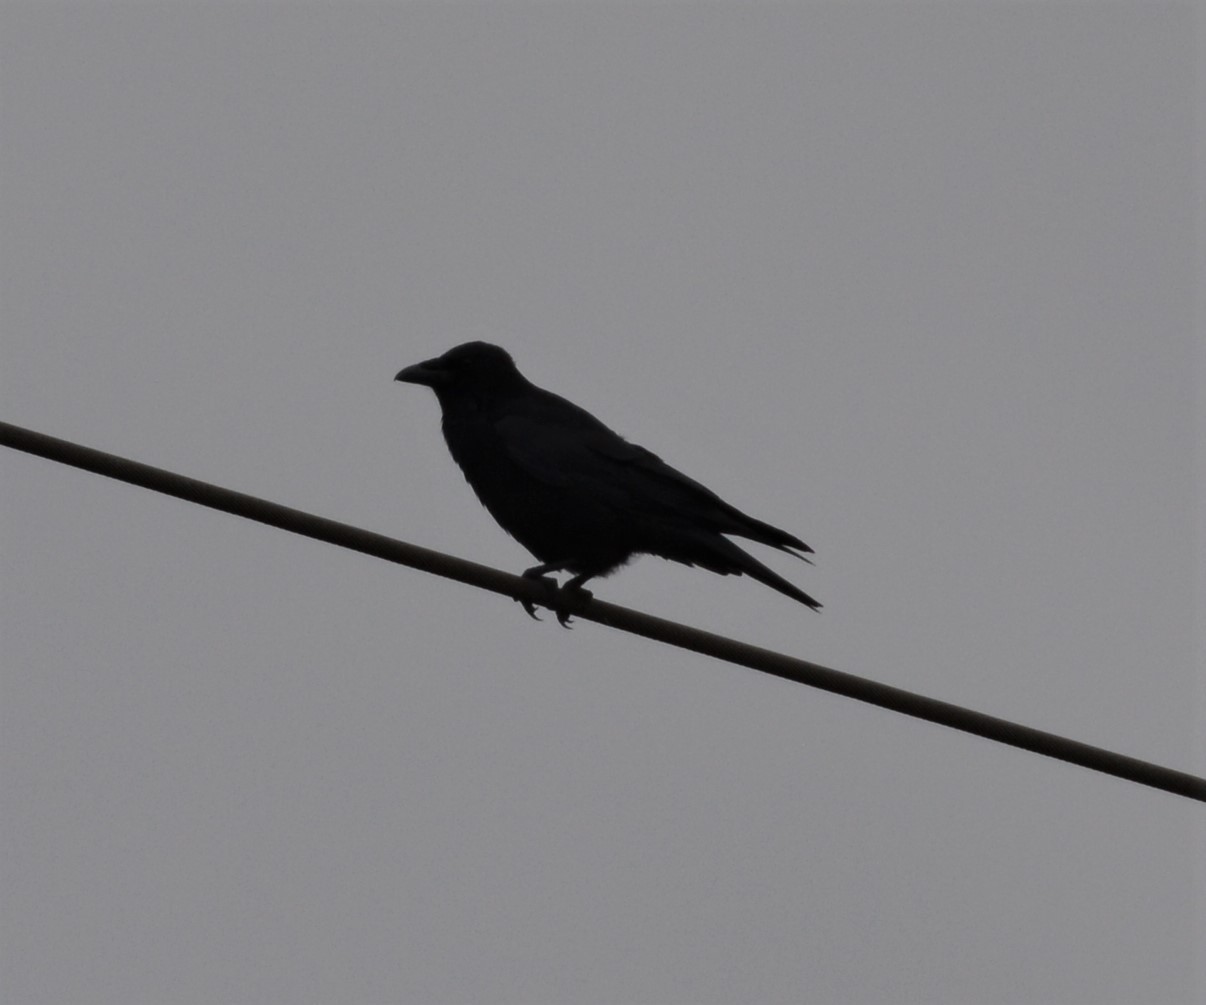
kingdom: Animalia
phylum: Chordata
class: Aves
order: Passeriformes
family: Corvidae
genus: Corvus
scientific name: Corvus corone
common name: Carrion crow
